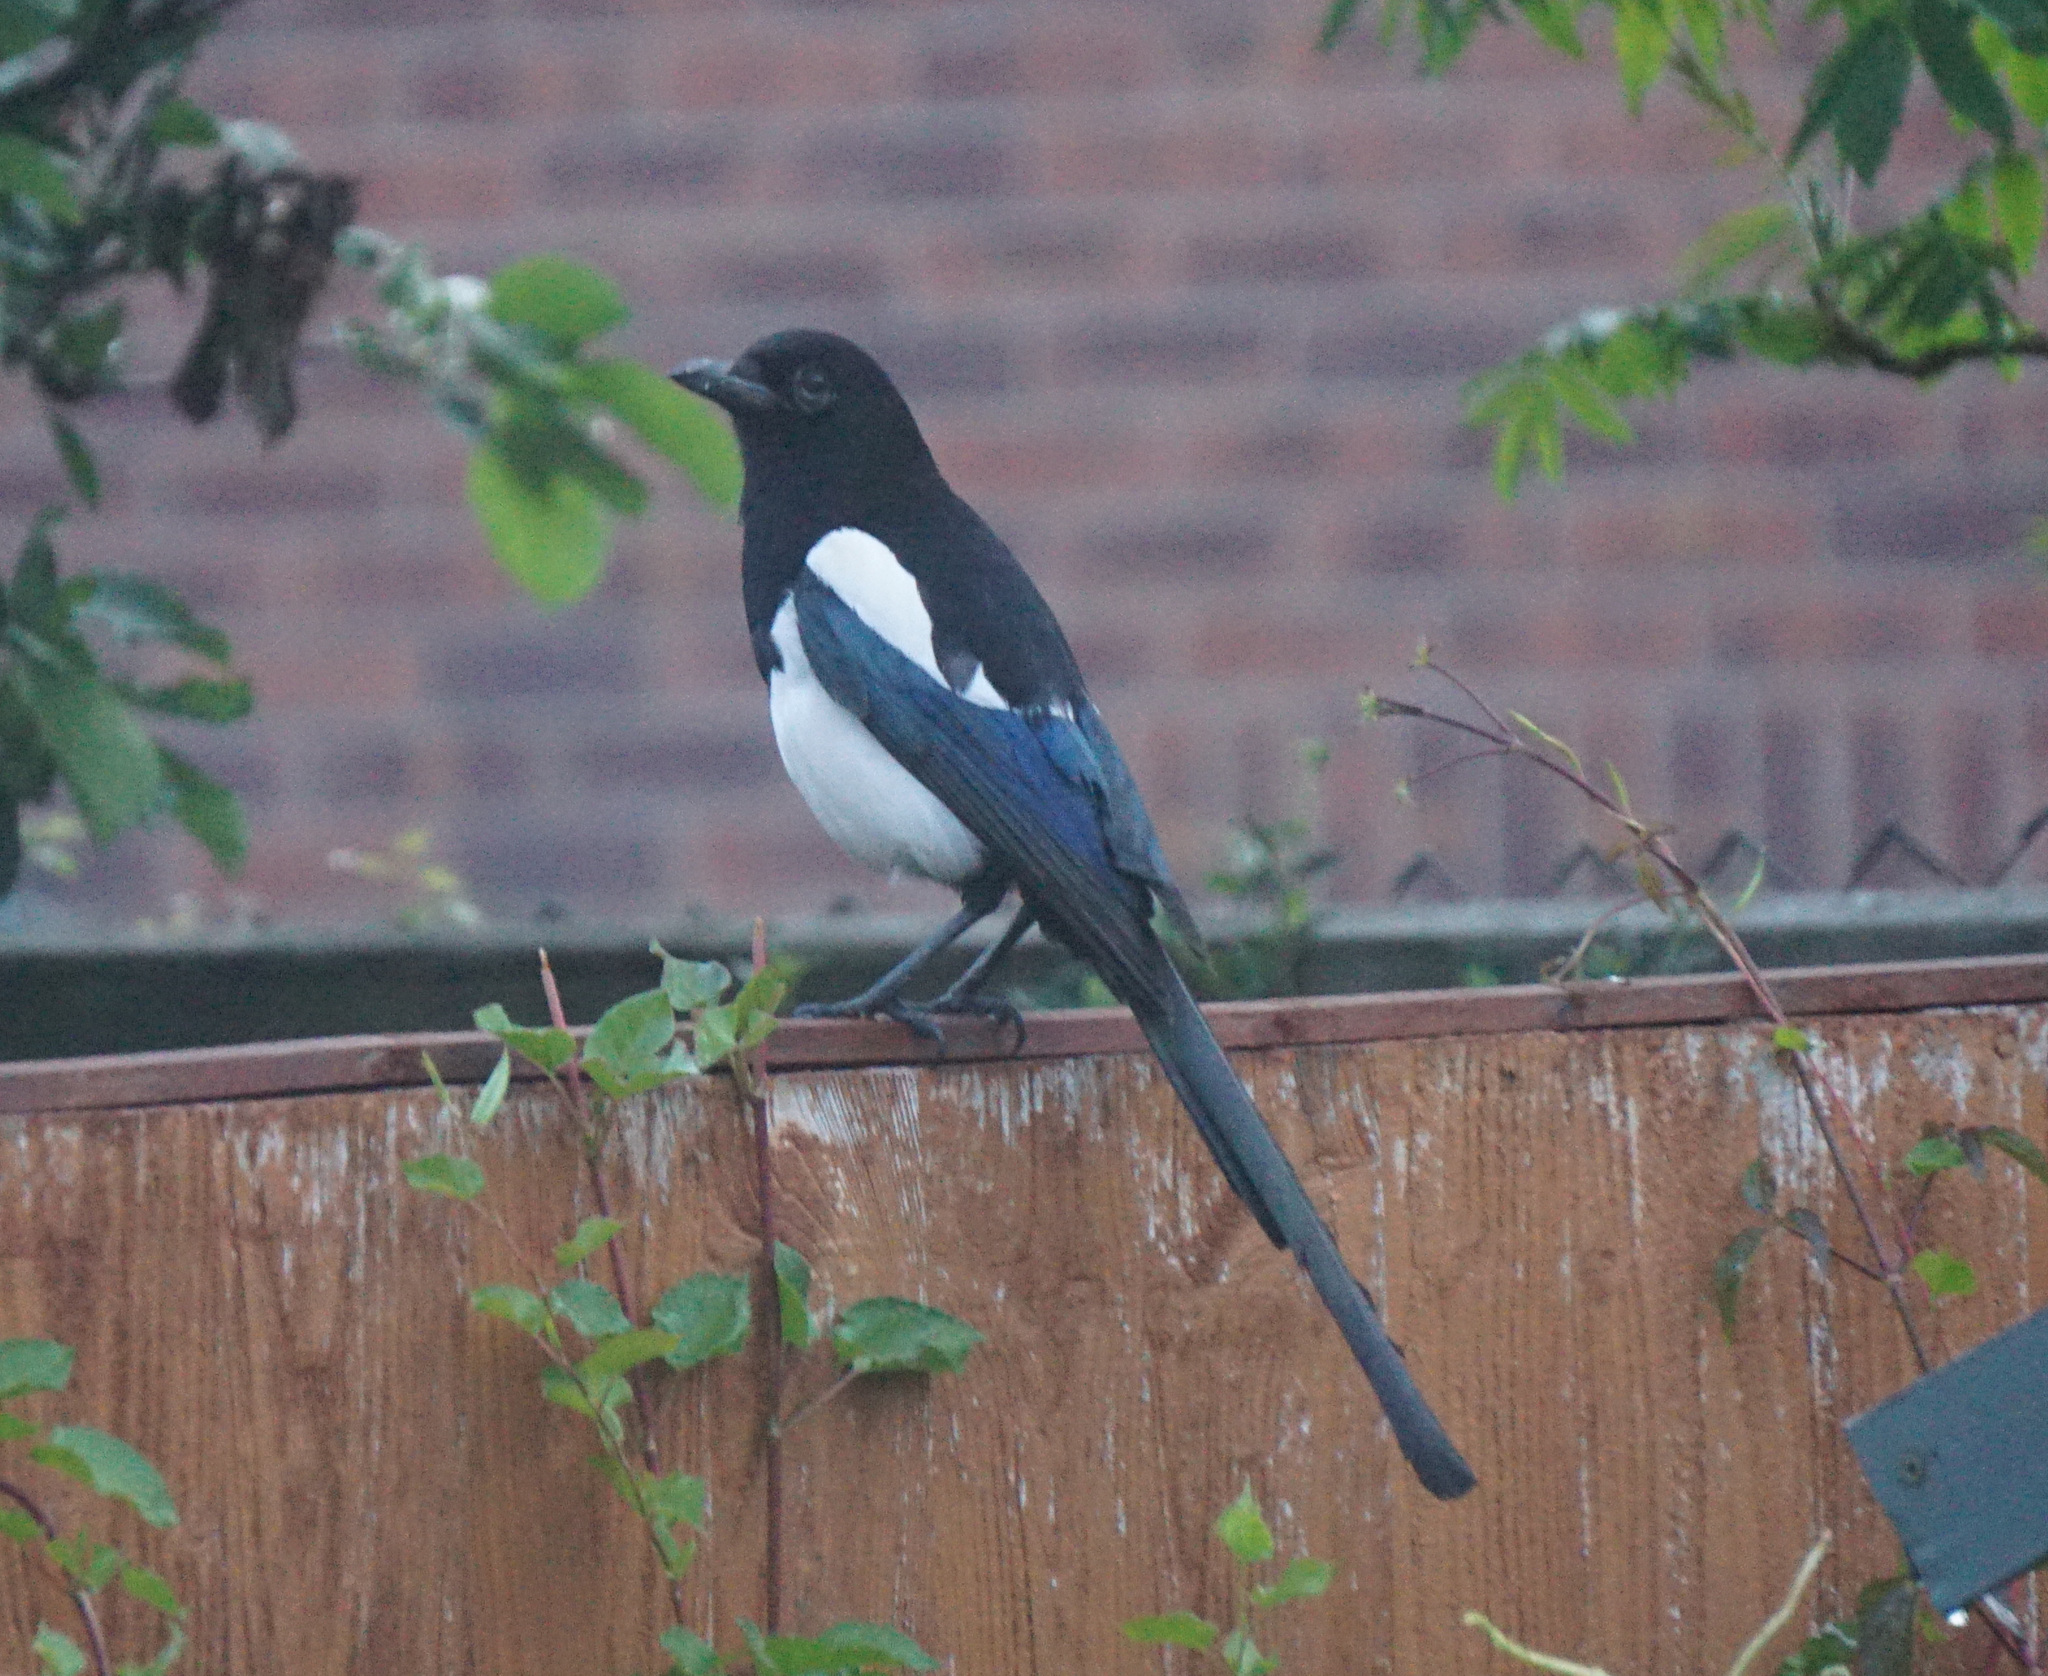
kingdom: Animalia
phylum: Chordata
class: Aves
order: Passeriformes
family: Corvidae
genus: Pica
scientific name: Pica pica
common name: Eurasian magpie
